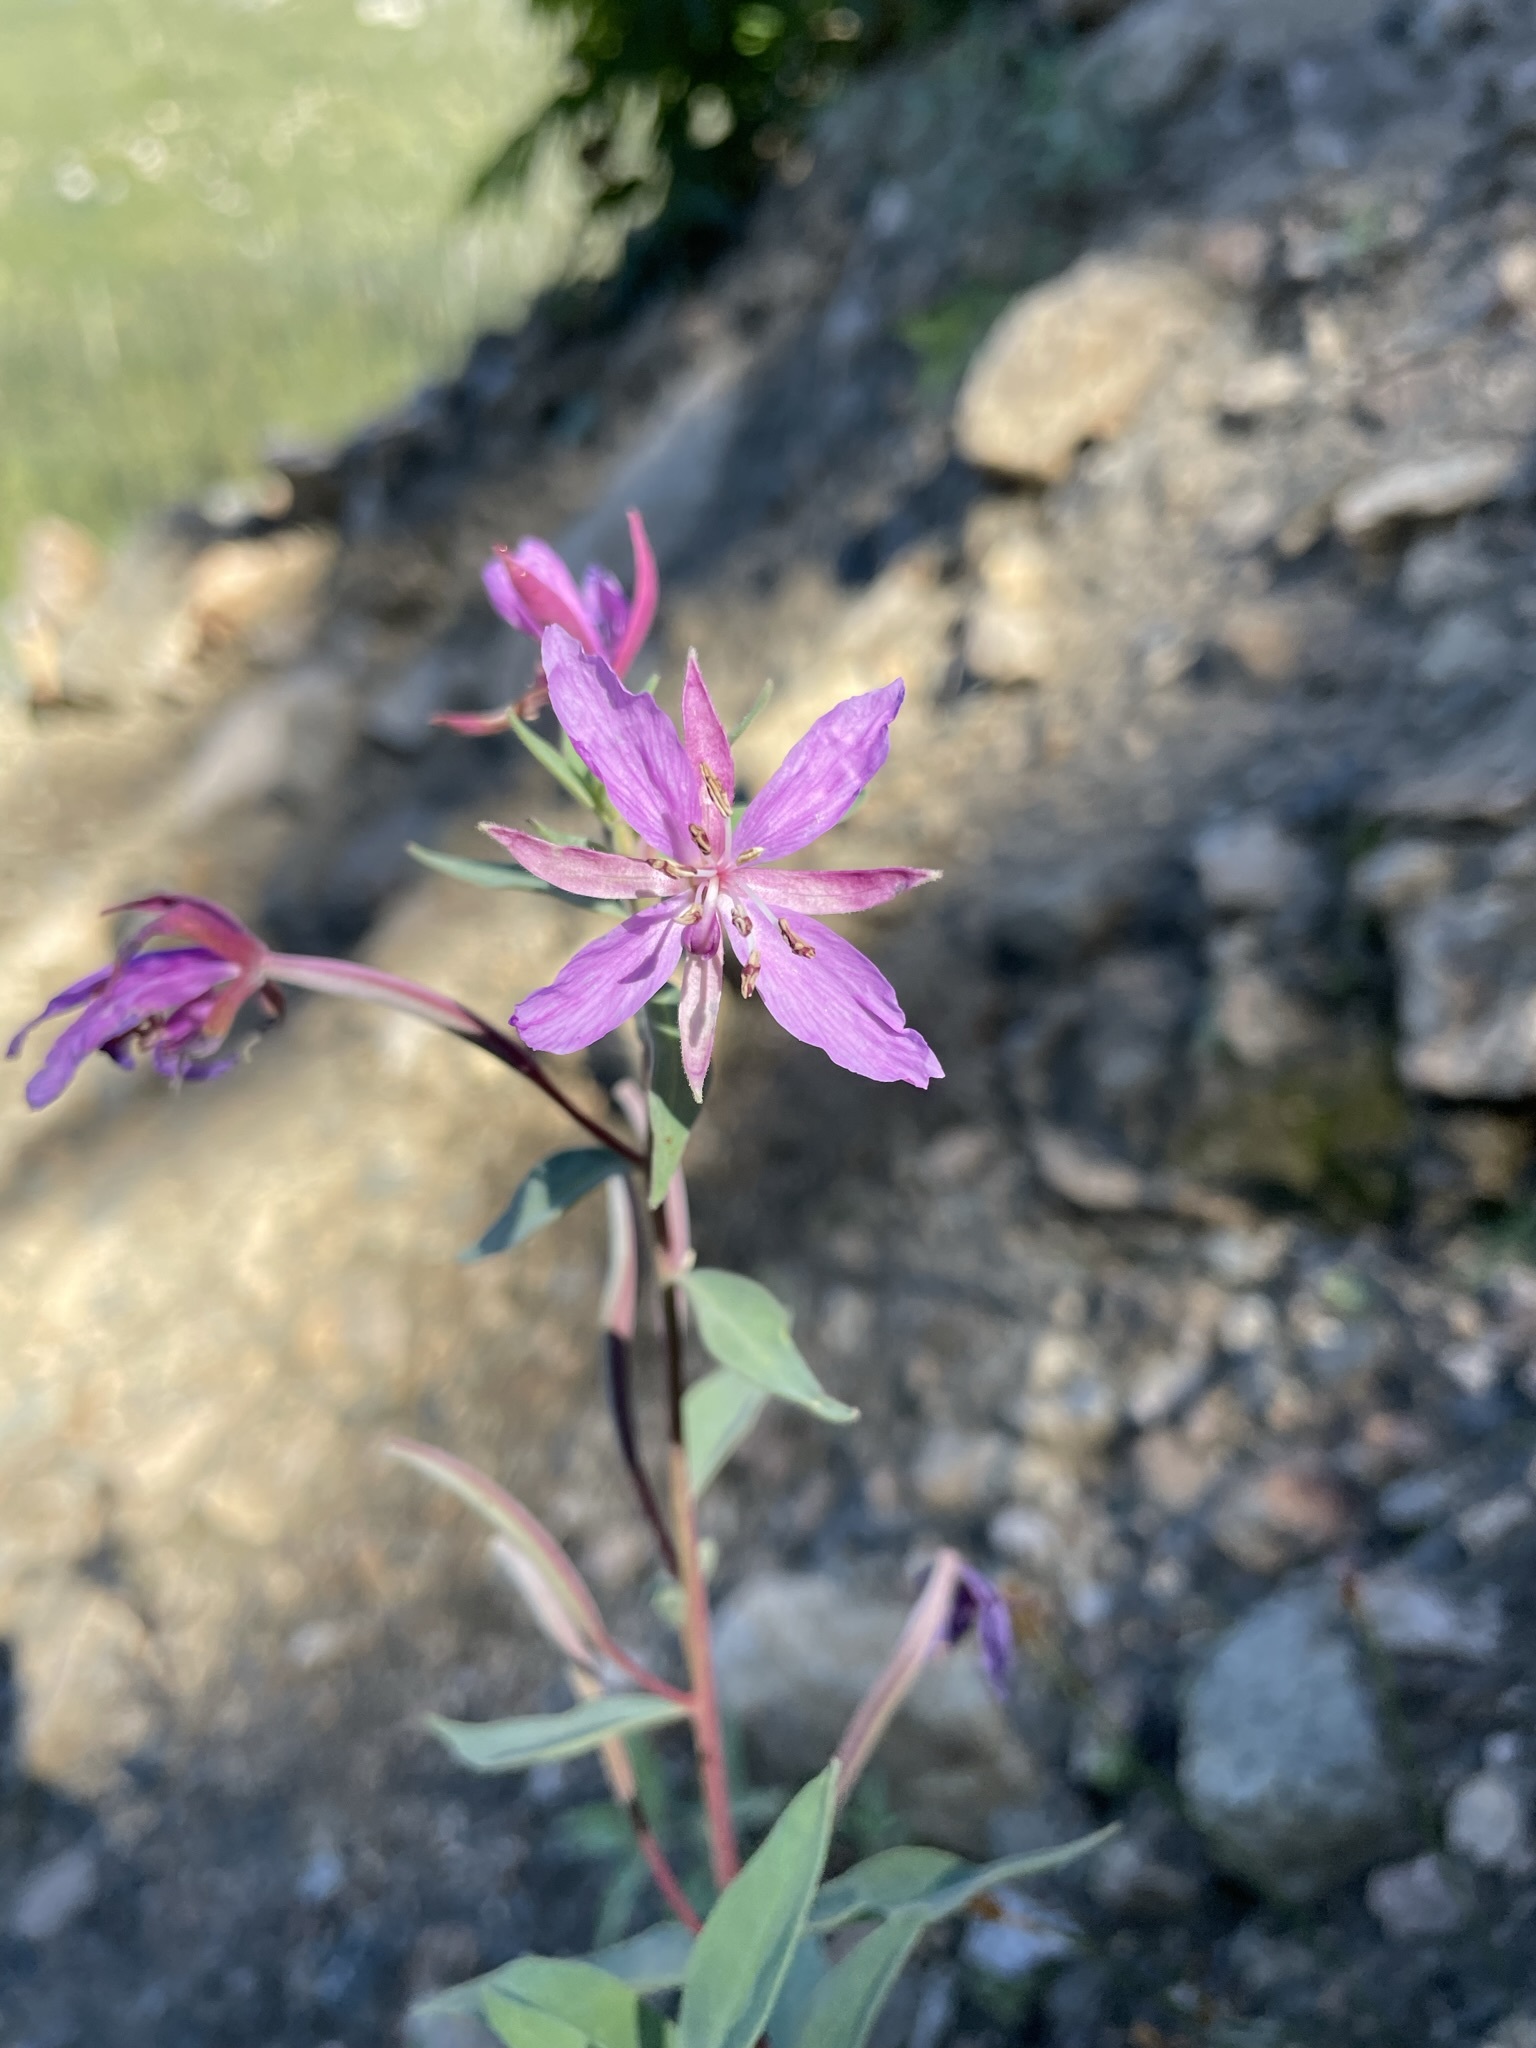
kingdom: Plantae
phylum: Tracheophyta
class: Magnoliopsida
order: Myrtales
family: Onagraceae
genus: Chamaenerion
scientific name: Chamaenerion latifolium
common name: Dwarf fireweed
